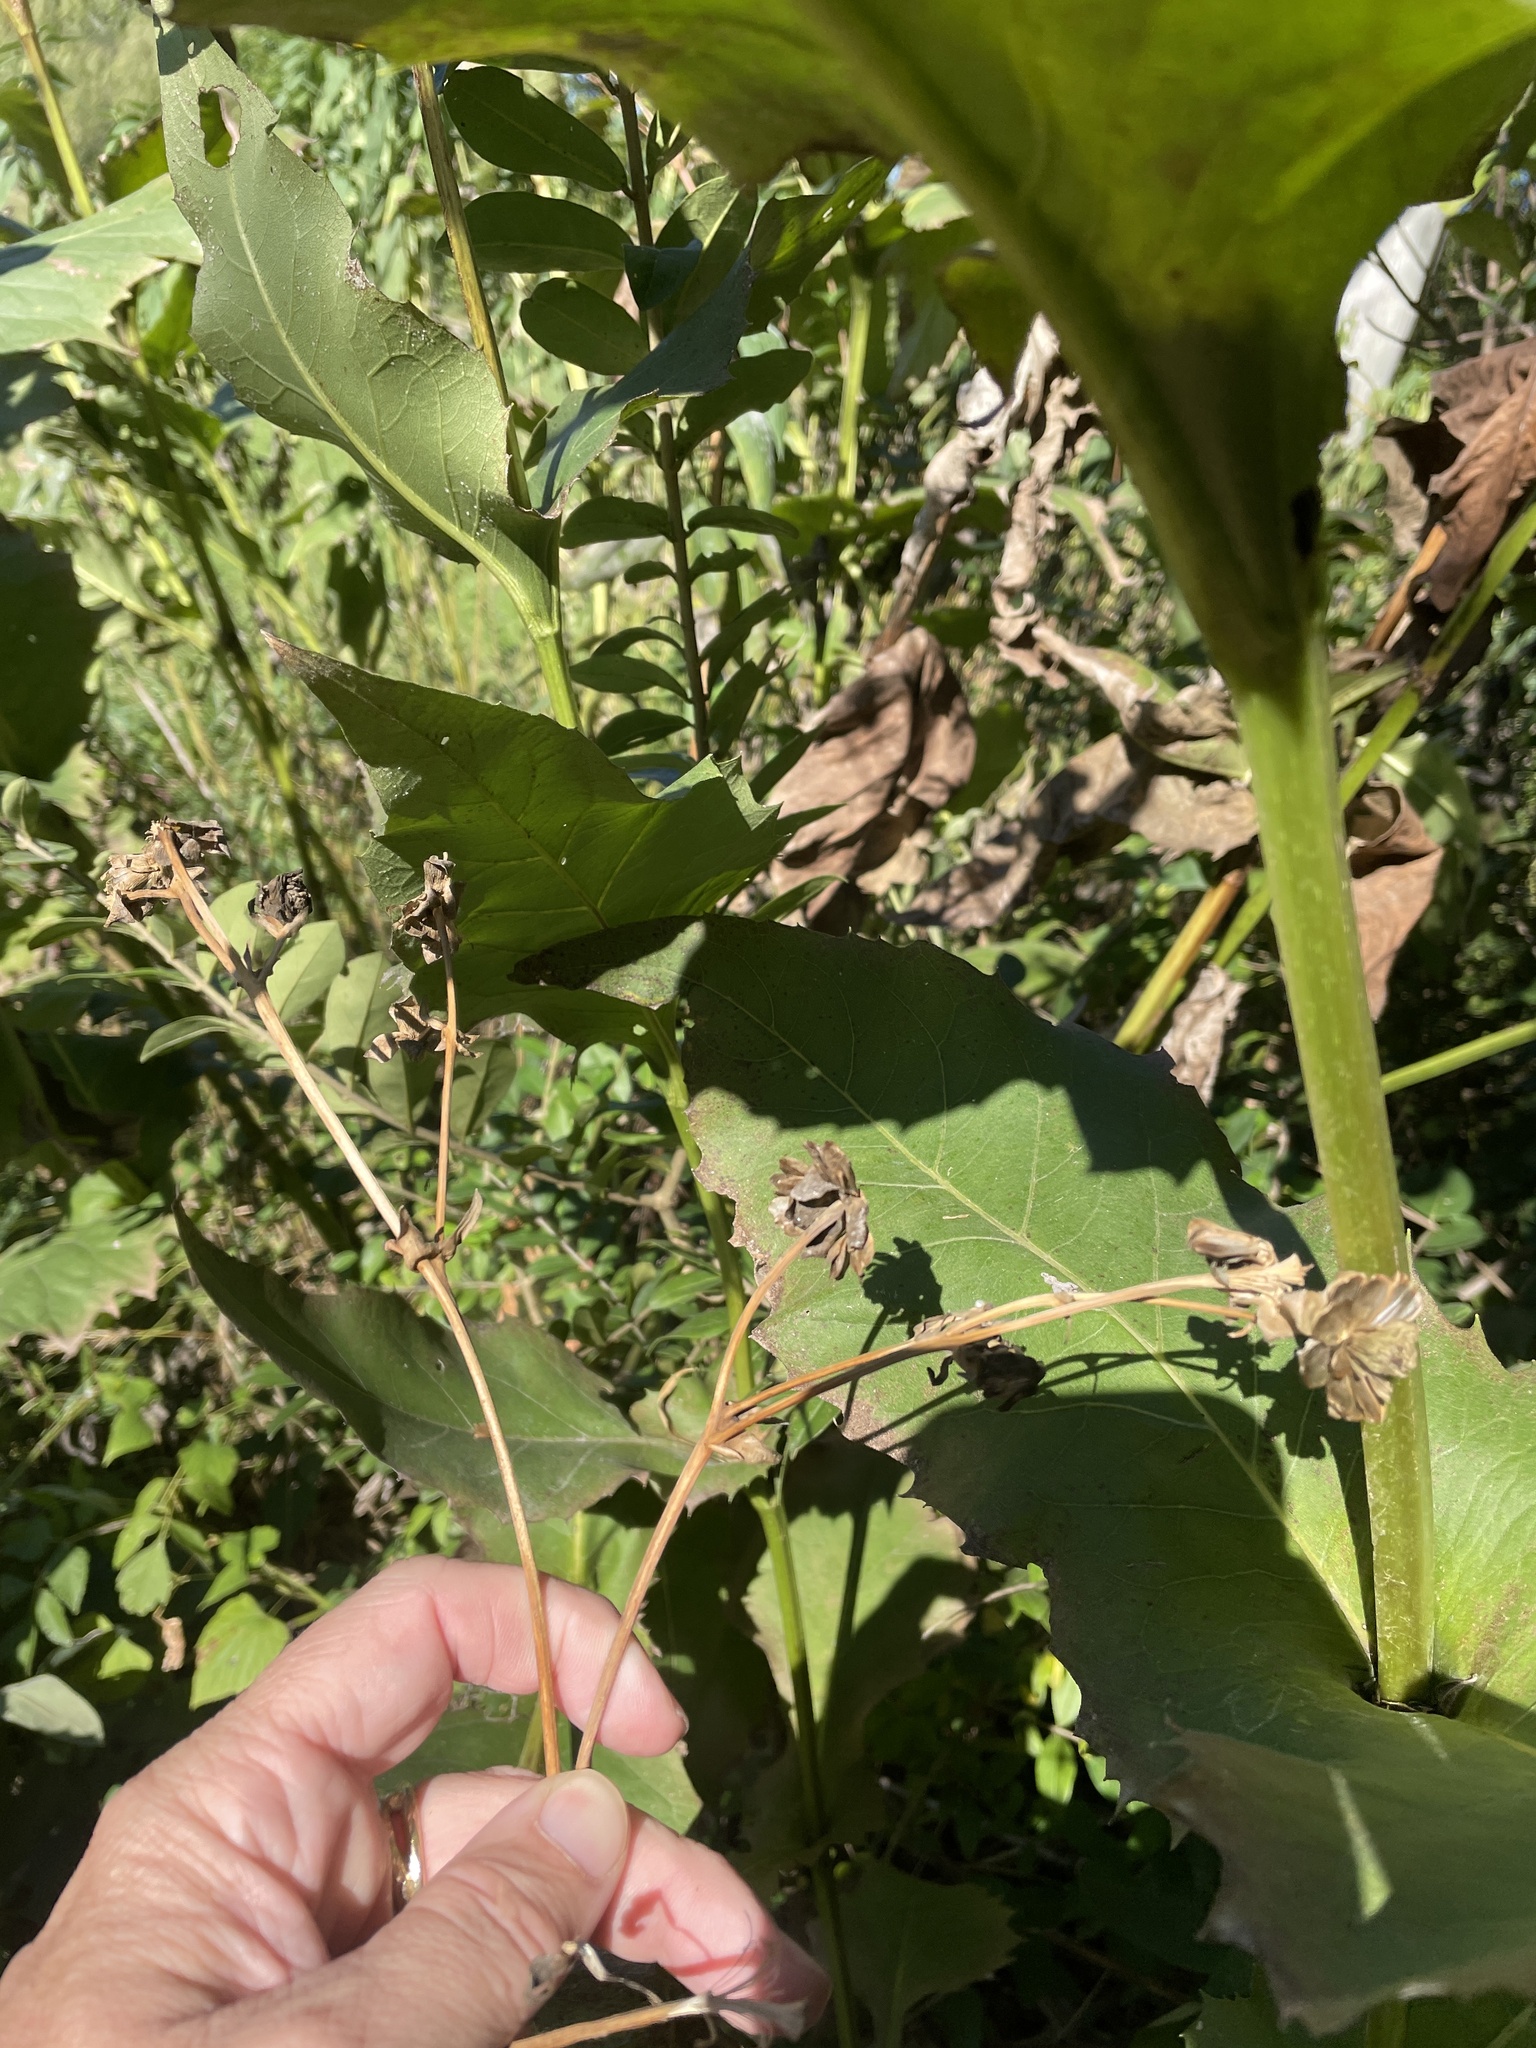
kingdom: Plantae
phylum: Tracheophyta
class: Magnoliopsida
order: Asterales
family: Asteraceae
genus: Silphium
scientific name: Silphium perfoliatum
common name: Cup-plant
